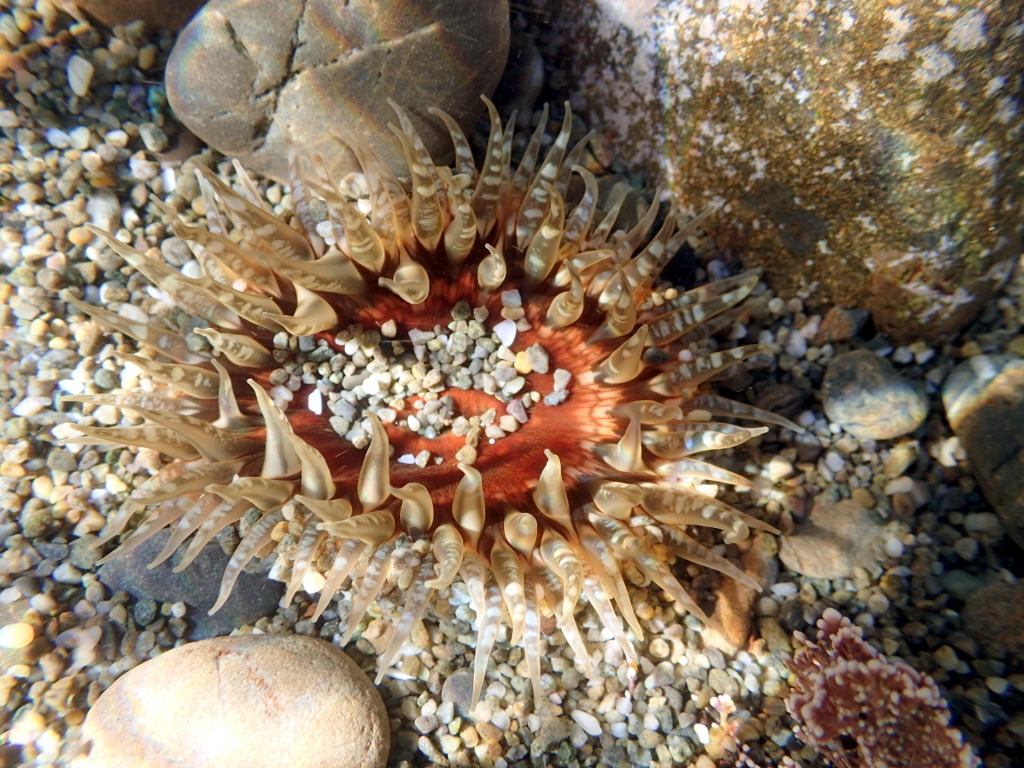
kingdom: Animalia
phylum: Cnidaria
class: Anthozoa
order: Actiniaria
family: Actiniidae
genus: Oulactis
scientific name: Oulactis muscosa
